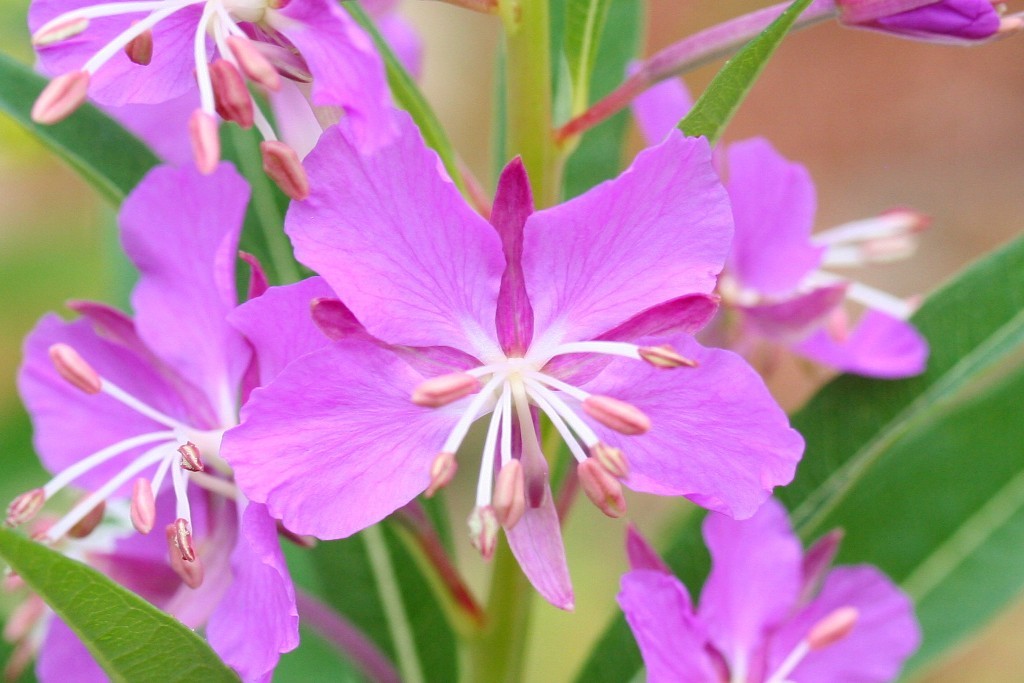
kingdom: Plantae
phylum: Tracheophyta
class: Magnoliopsida
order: Myrtales
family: Onagraceae
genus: Chamaenerion
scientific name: Chamaenerion angustifolium
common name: Fireweed
